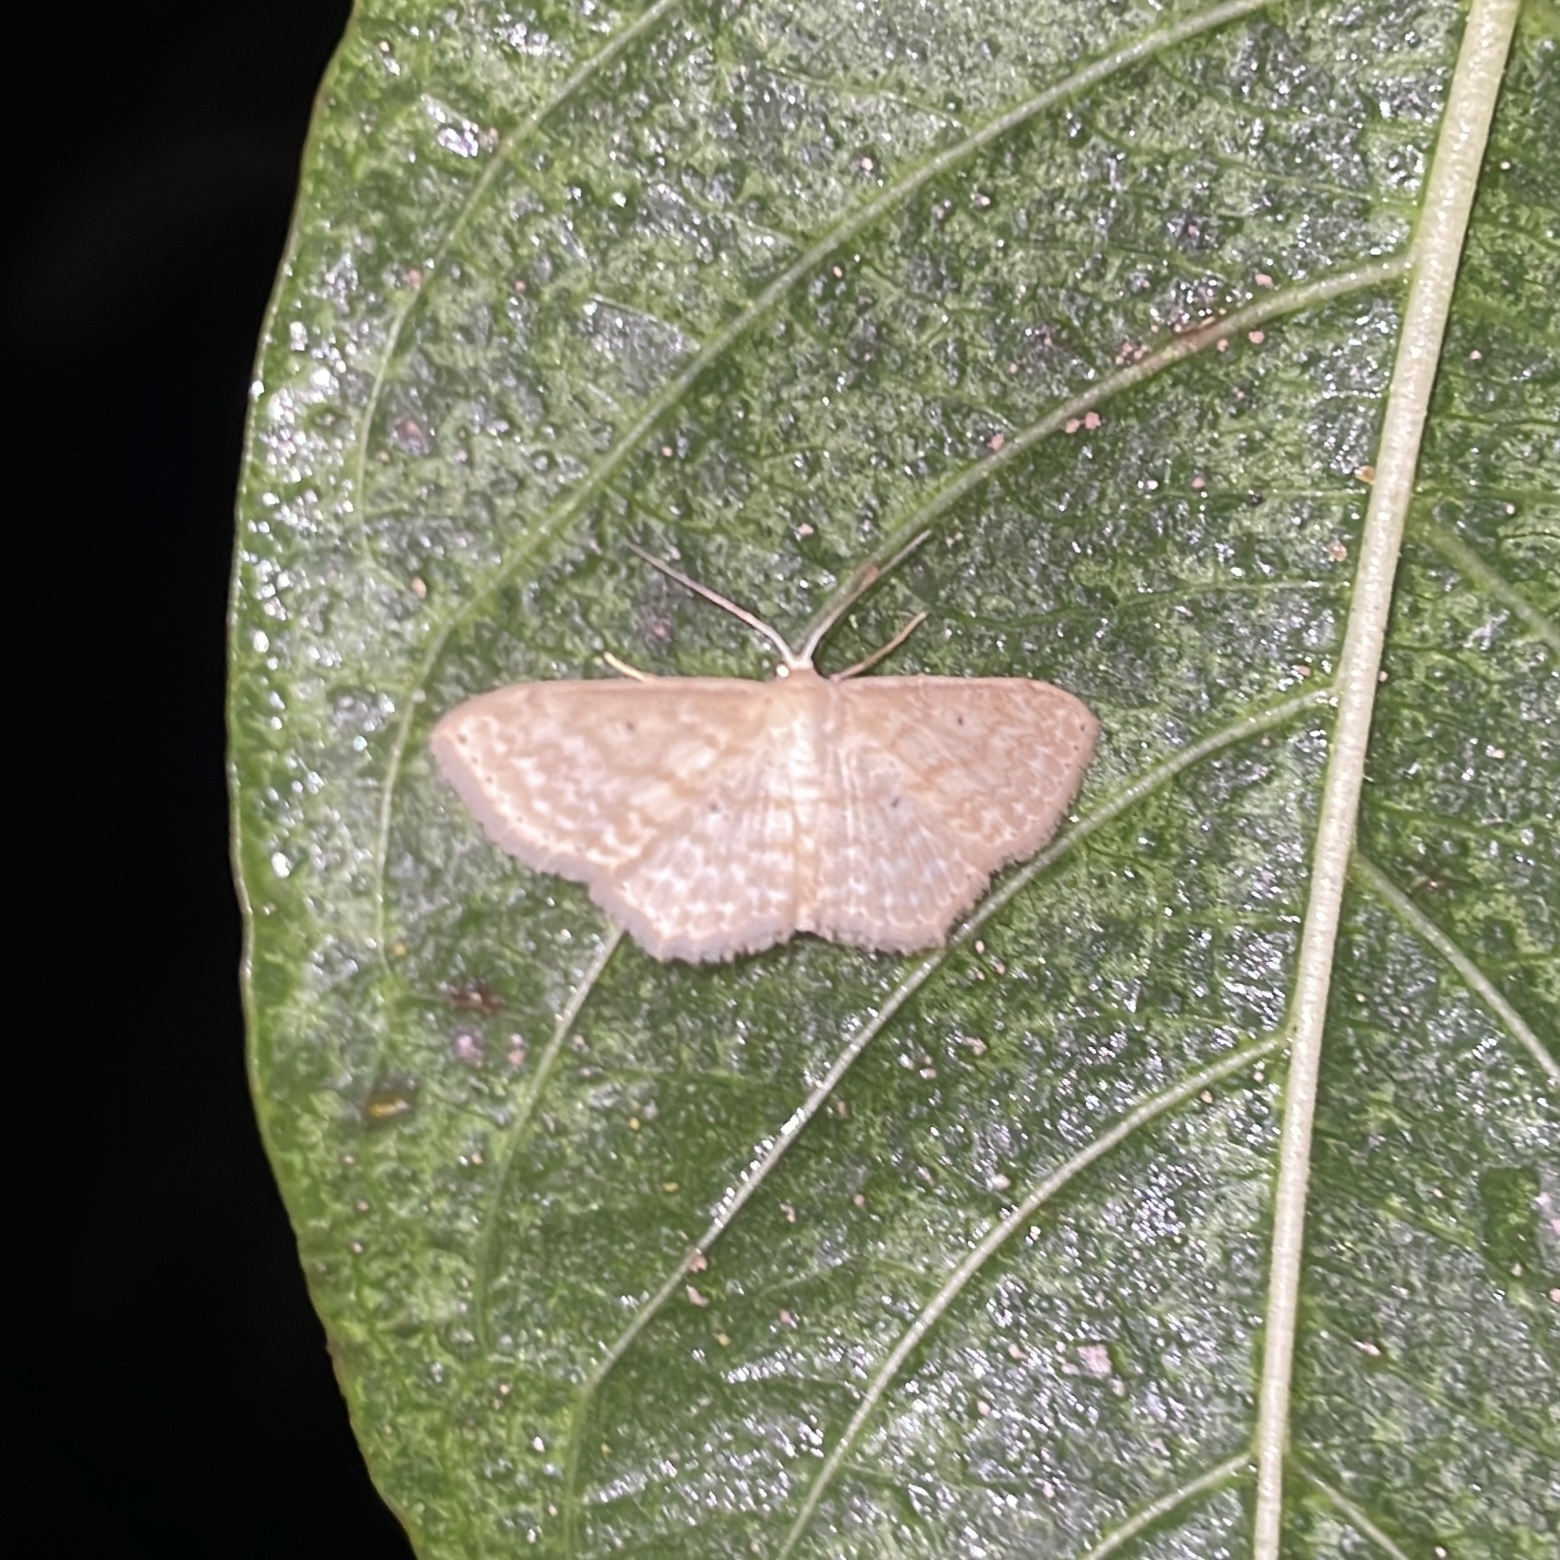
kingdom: Animalia
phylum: Arthropoda
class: Insecta
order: Lepidoptera
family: Geometridae
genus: Scopula
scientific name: Scopula apparitaria
